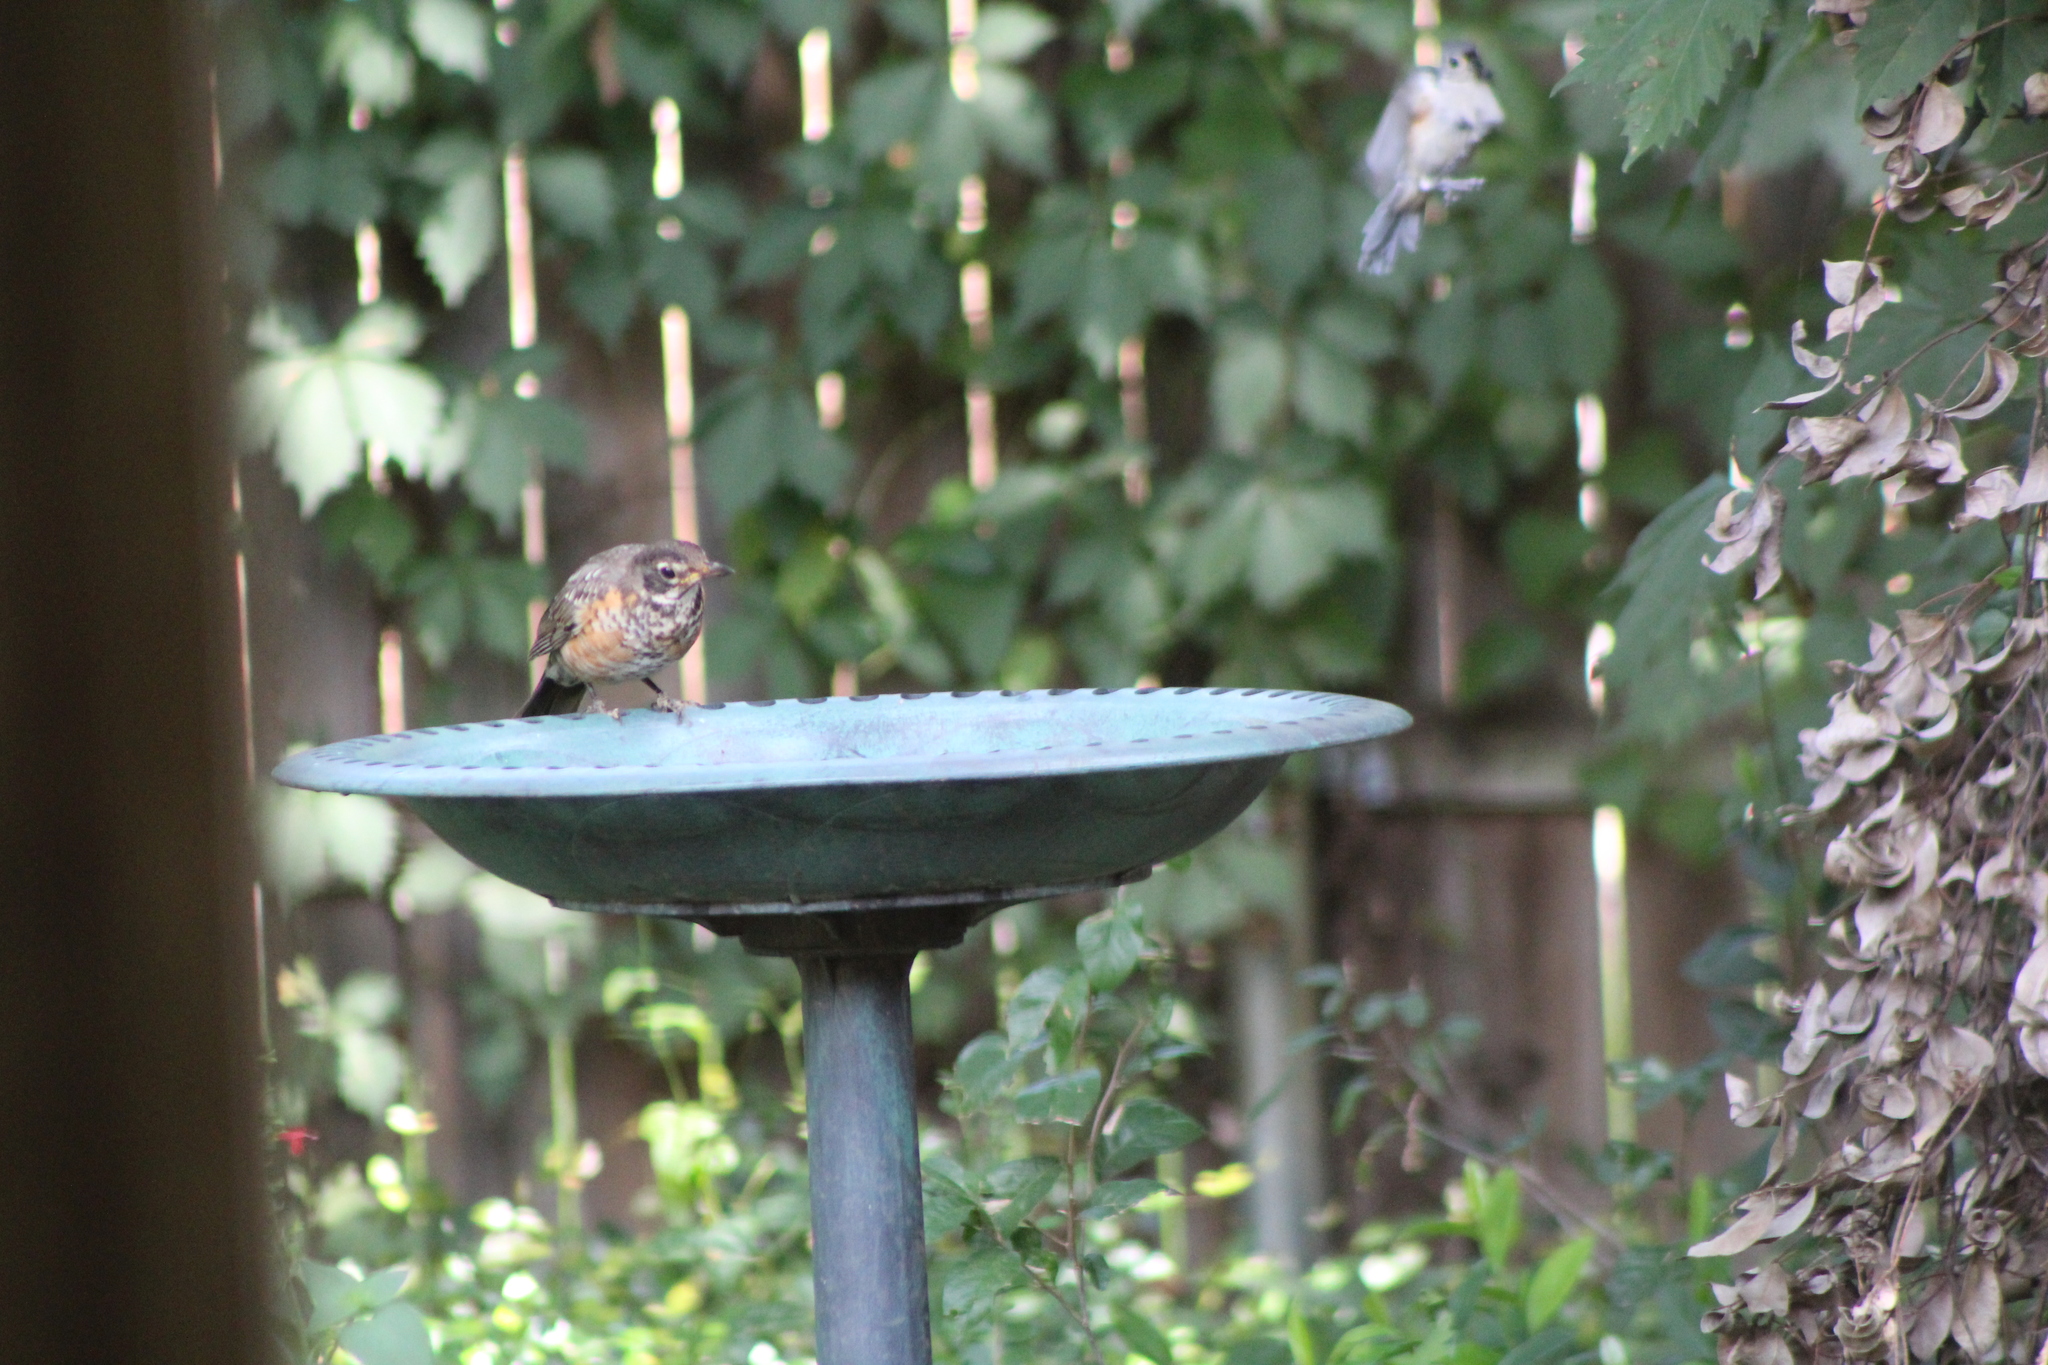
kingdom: Animalia
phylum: Chordata
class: Aves
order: Passeriformes
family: Turdidae
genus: Turdus
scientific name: Turdus migratorius
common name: American robin
